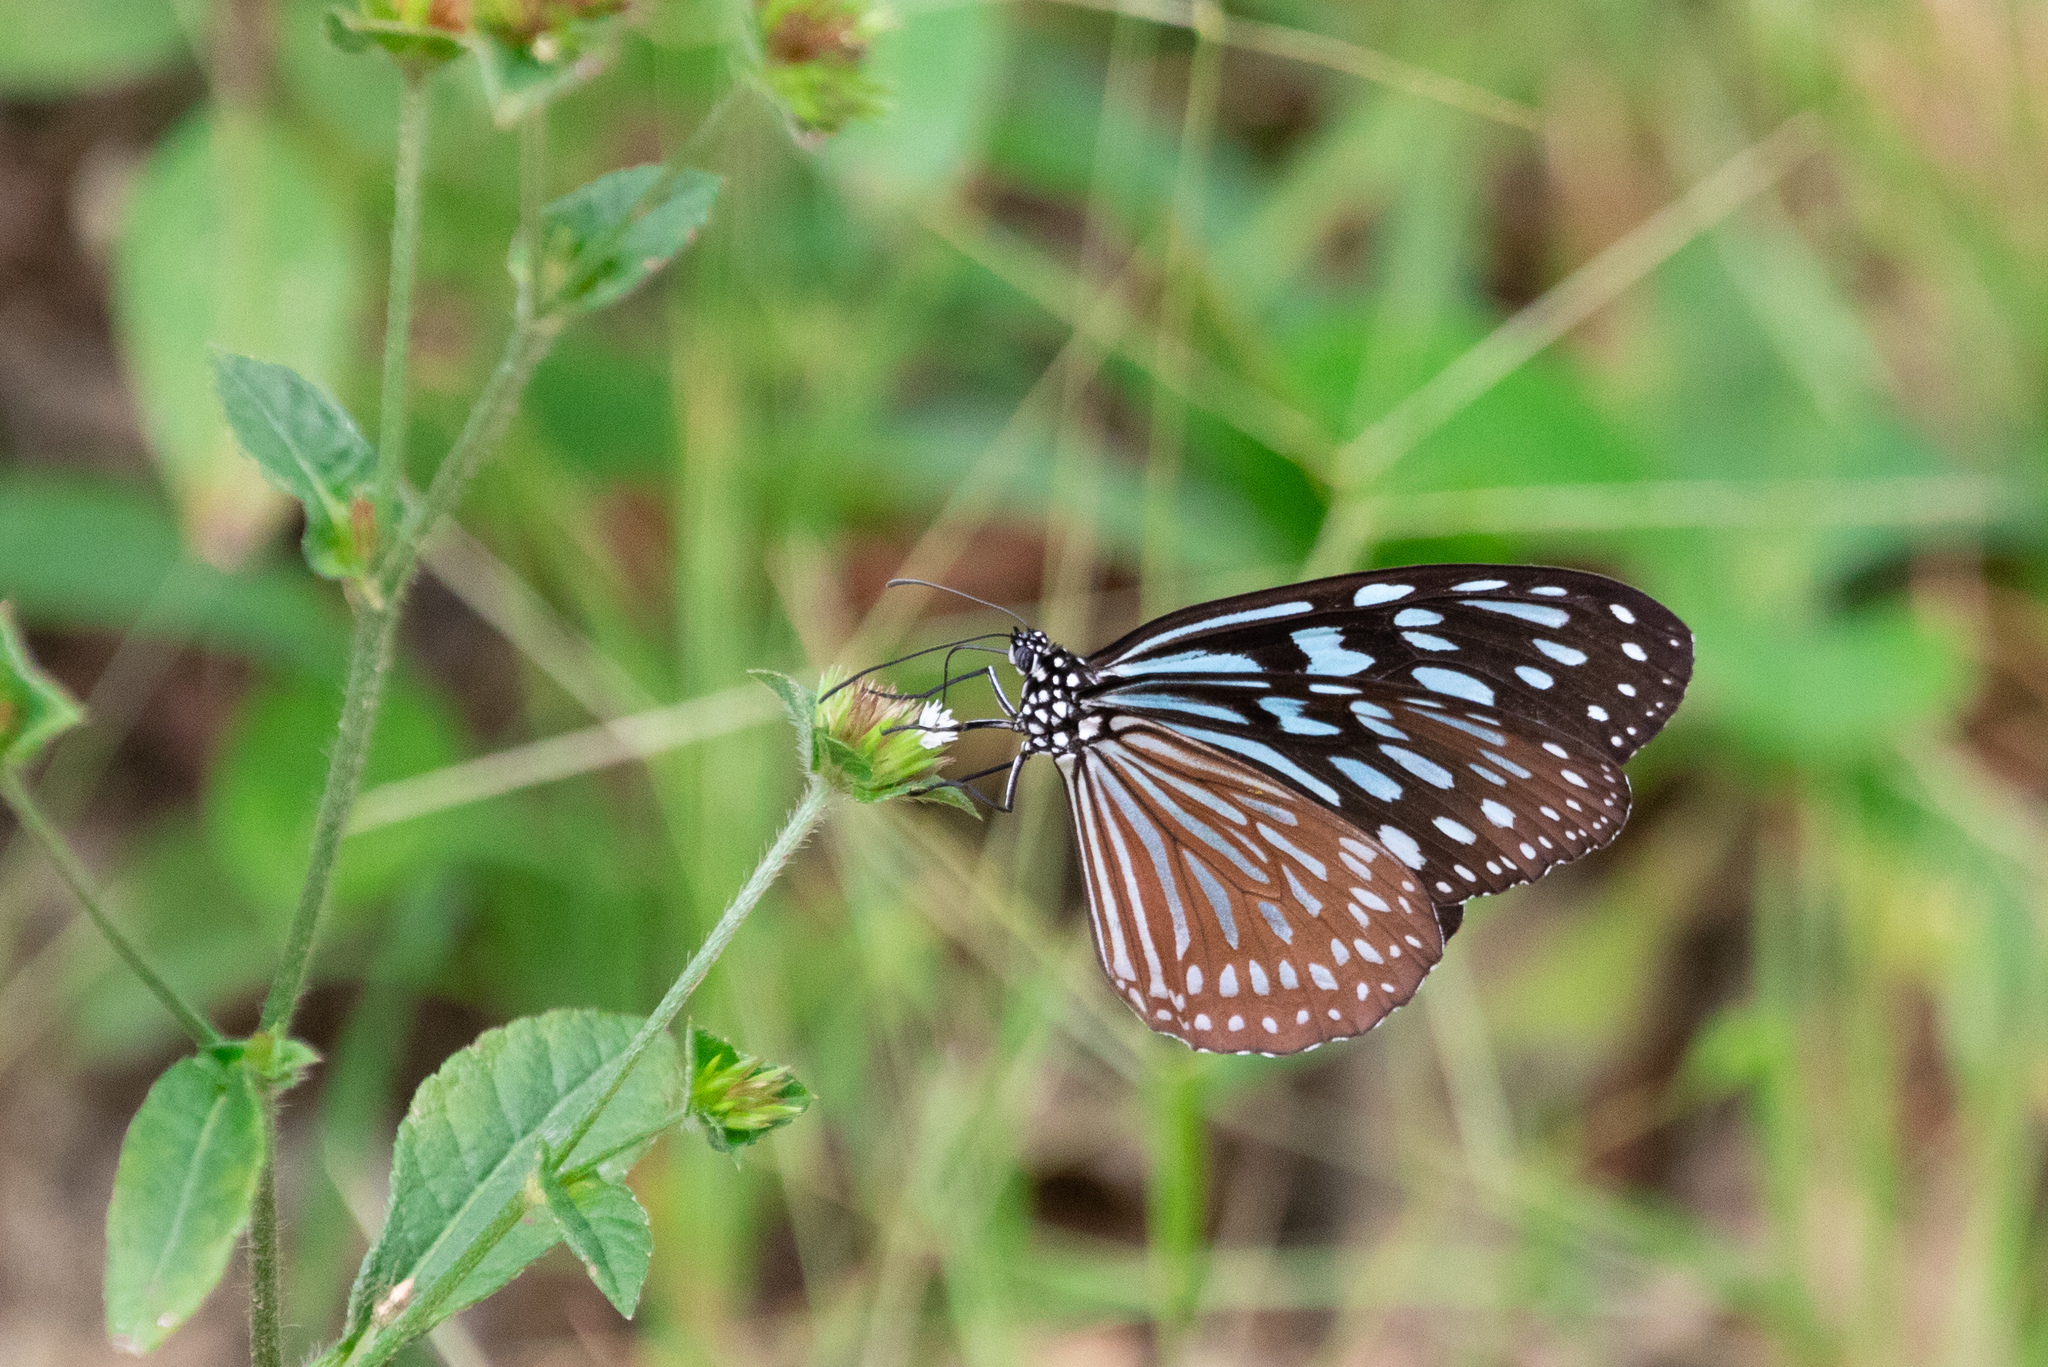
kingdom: Animalia
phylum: Arthropoda
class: Insecta
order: Lepidoptera
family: Nymphalidae
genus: Ideopsis
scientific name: Ideopsis similis
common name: Ceylon blue glassy tiger
